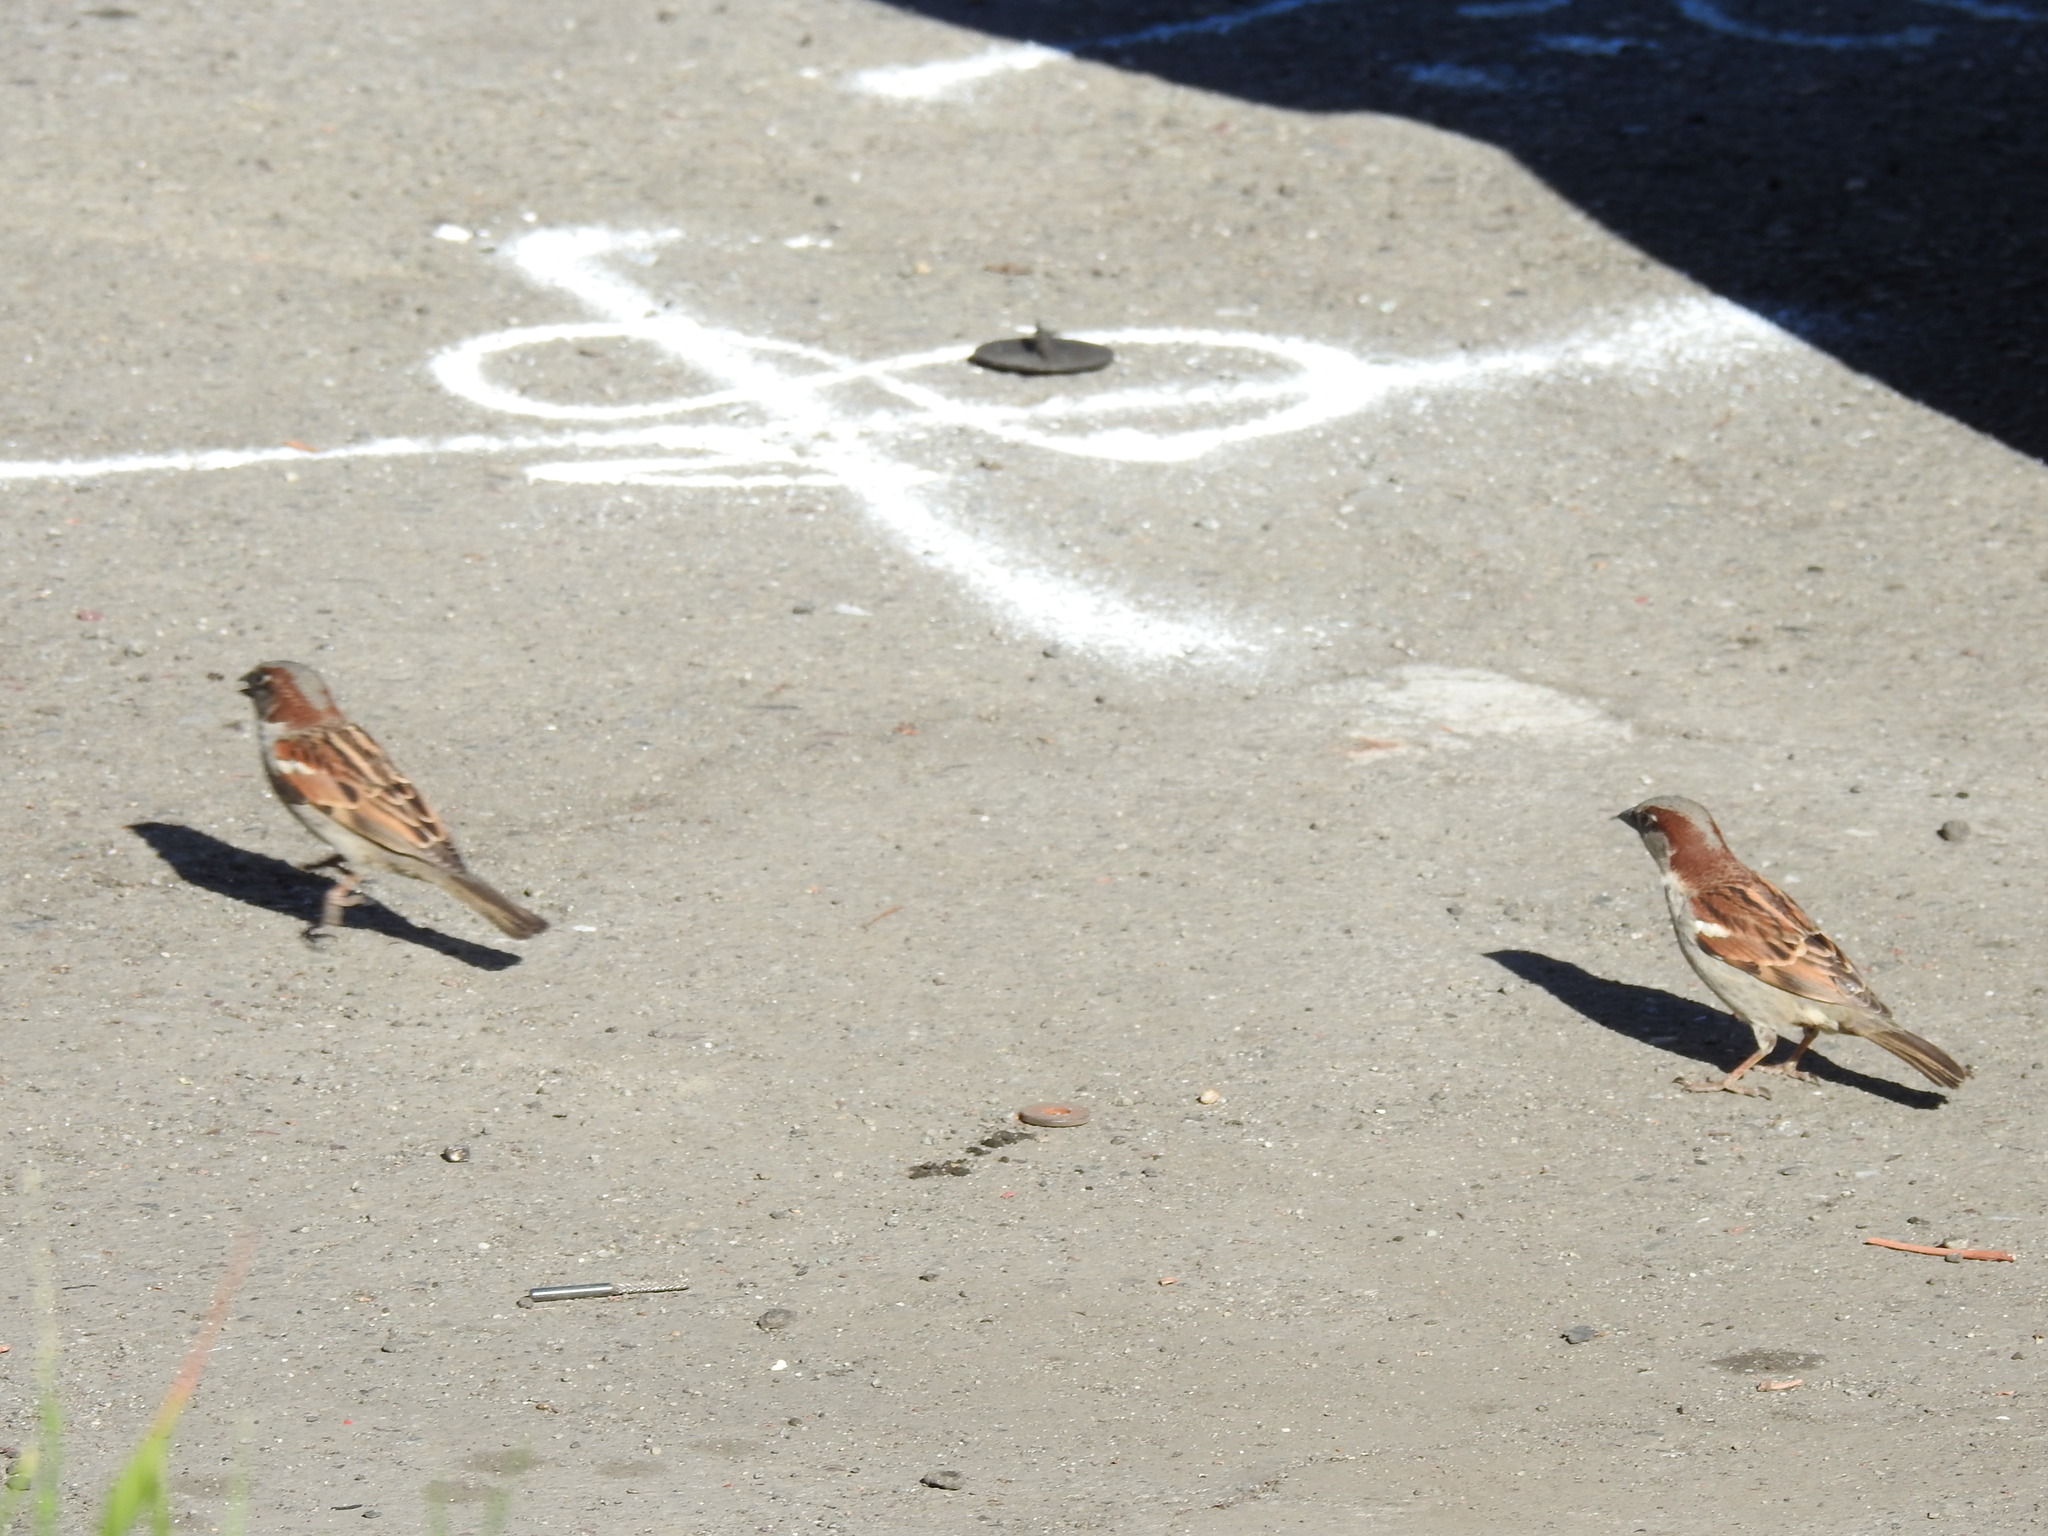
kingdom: Animalia
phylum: Chordata
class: Aves
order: Passeriformes
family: Passeridae
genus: Passer
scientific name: Passer domesticus
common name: House sparrow
